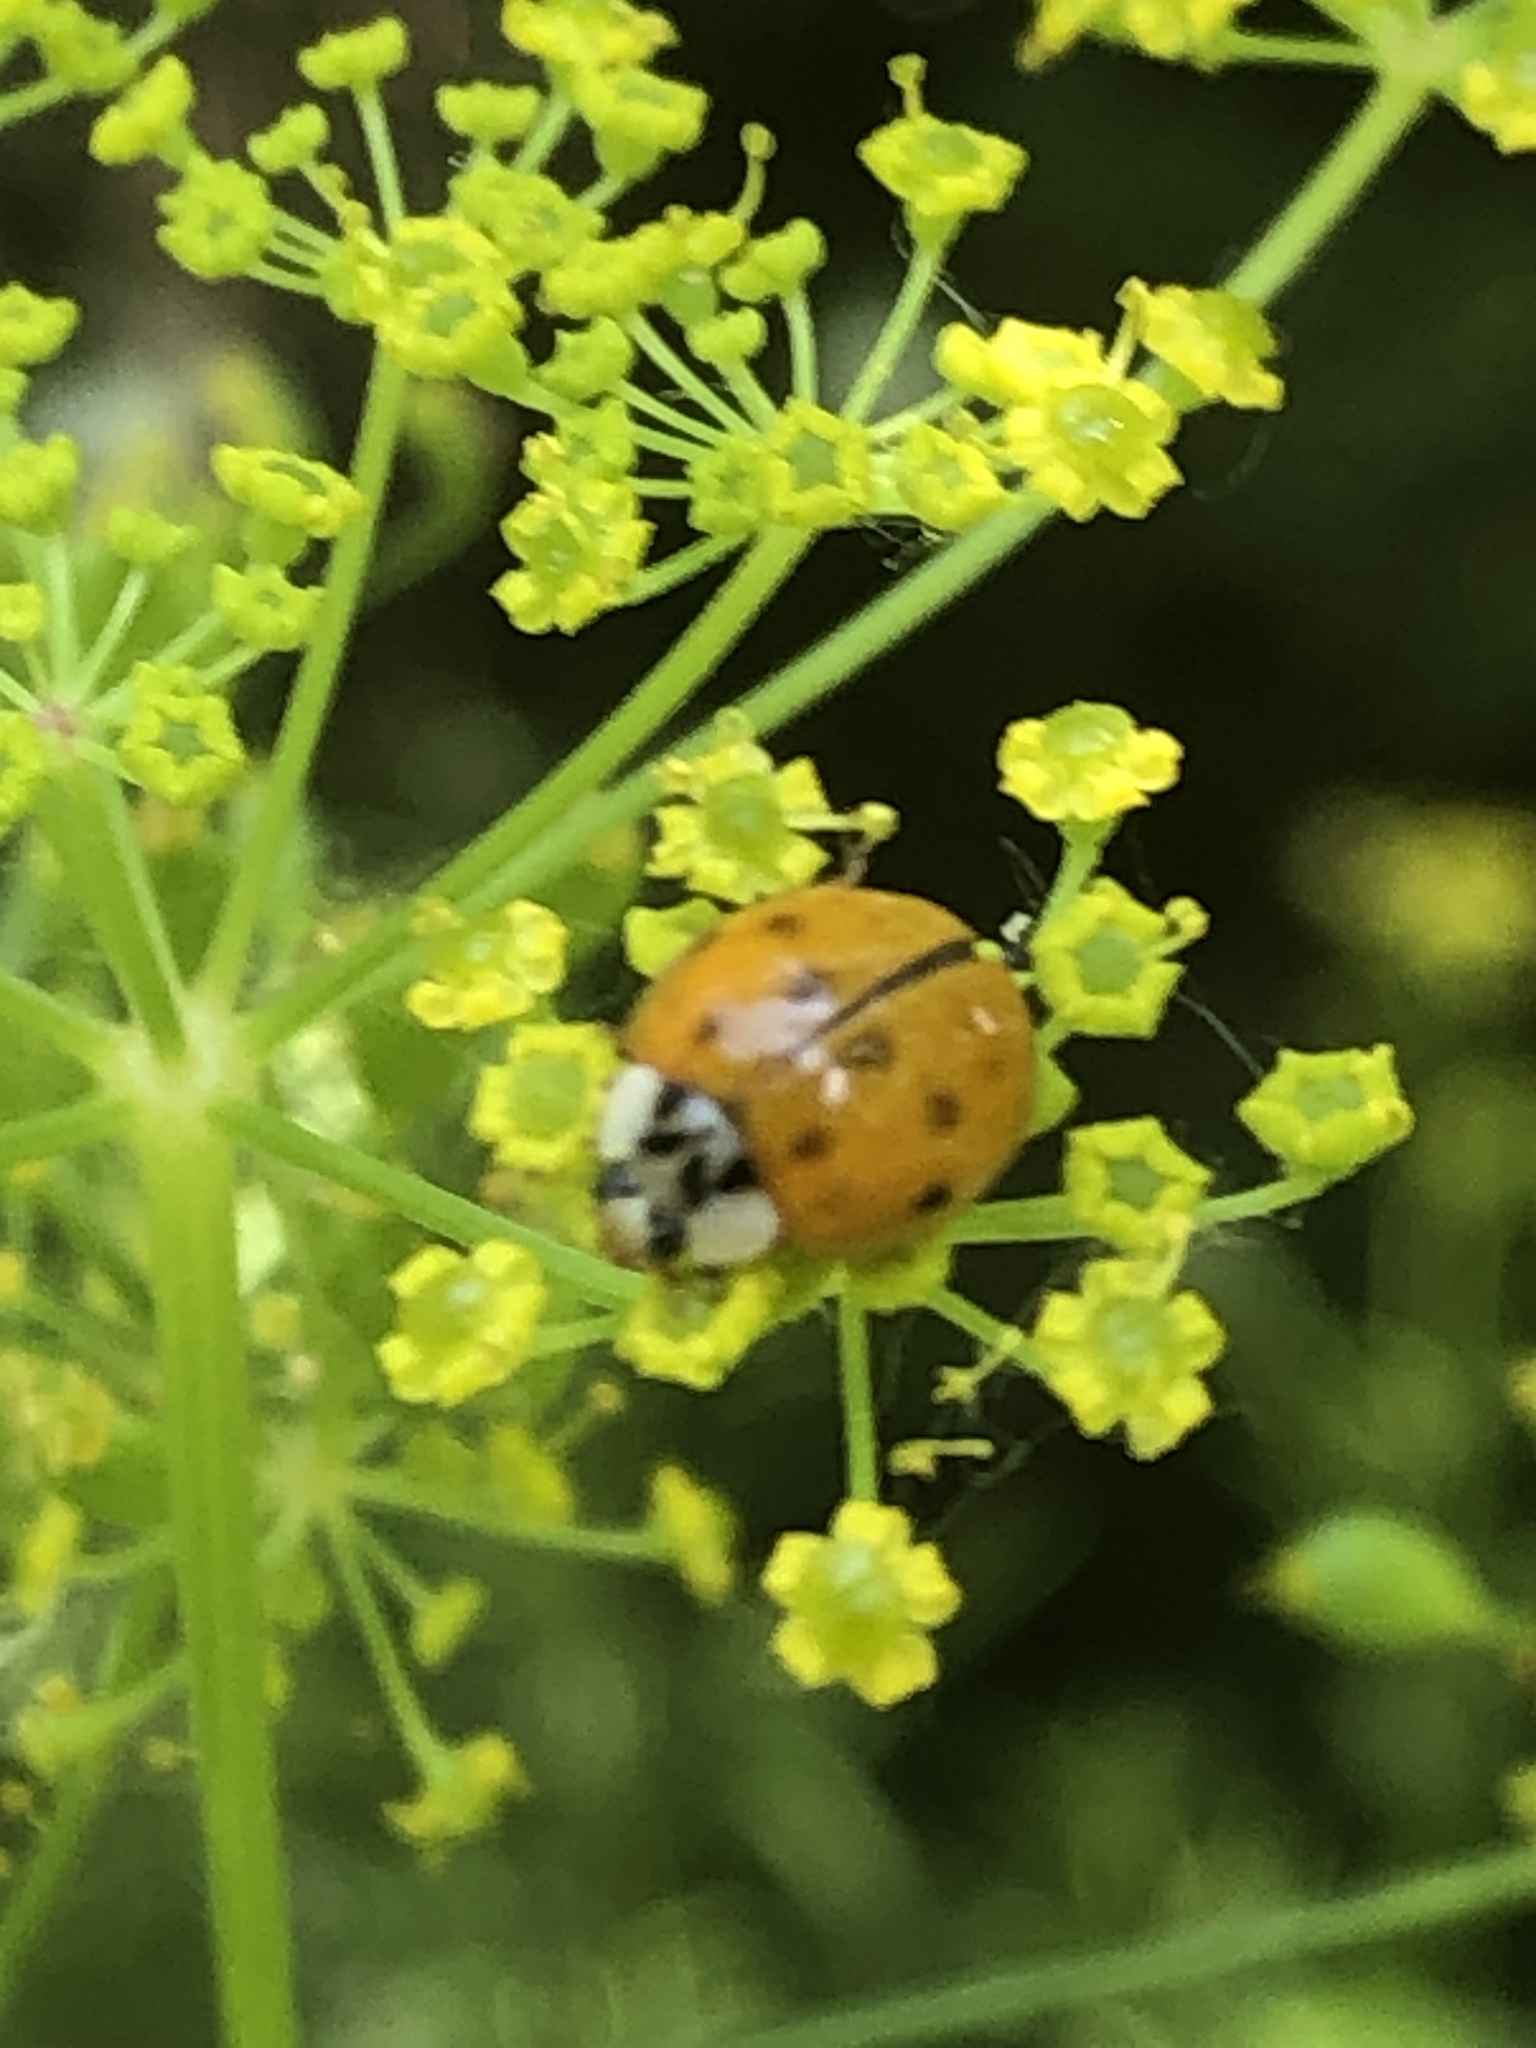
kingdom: Animalia
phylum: Arthropoda
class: Insecta
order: Coleoptera
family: Coccinellidae
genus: Harmonia
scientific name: Harmonia axyridis
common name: Harlequin ladybird
